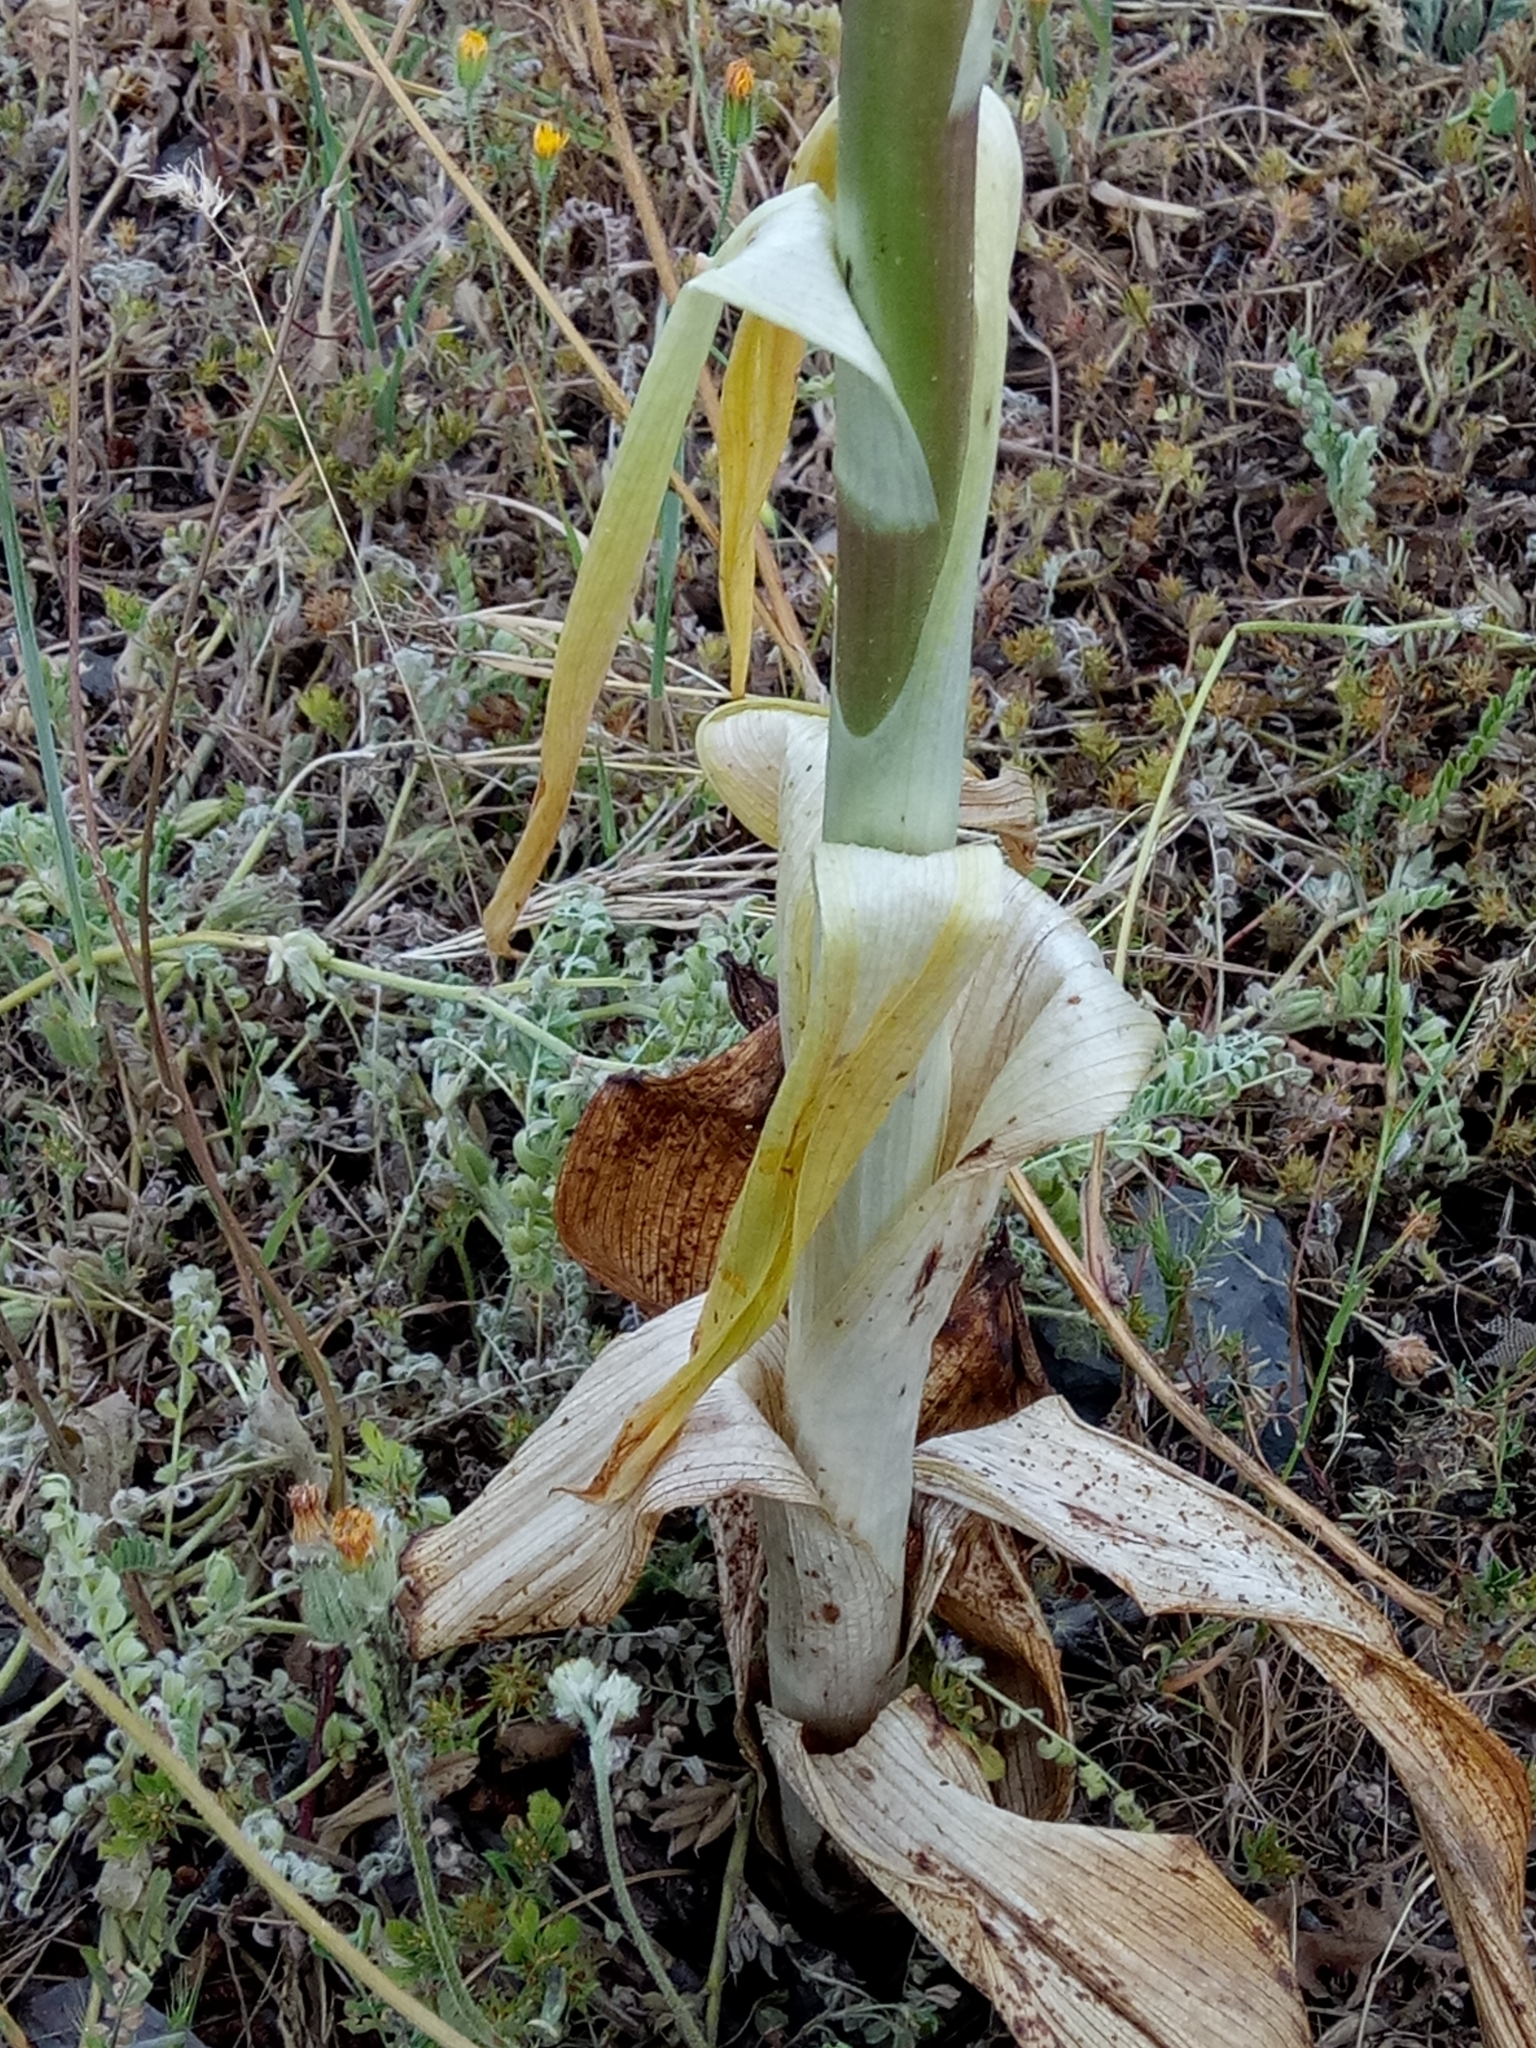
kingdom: Plantae
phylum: Tracheophyta
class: Liliopsida
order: Asparagales
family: Orchidaceae
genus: Himantoglossum
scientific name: Himantoglossum hircinum
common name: Lizard orchid
